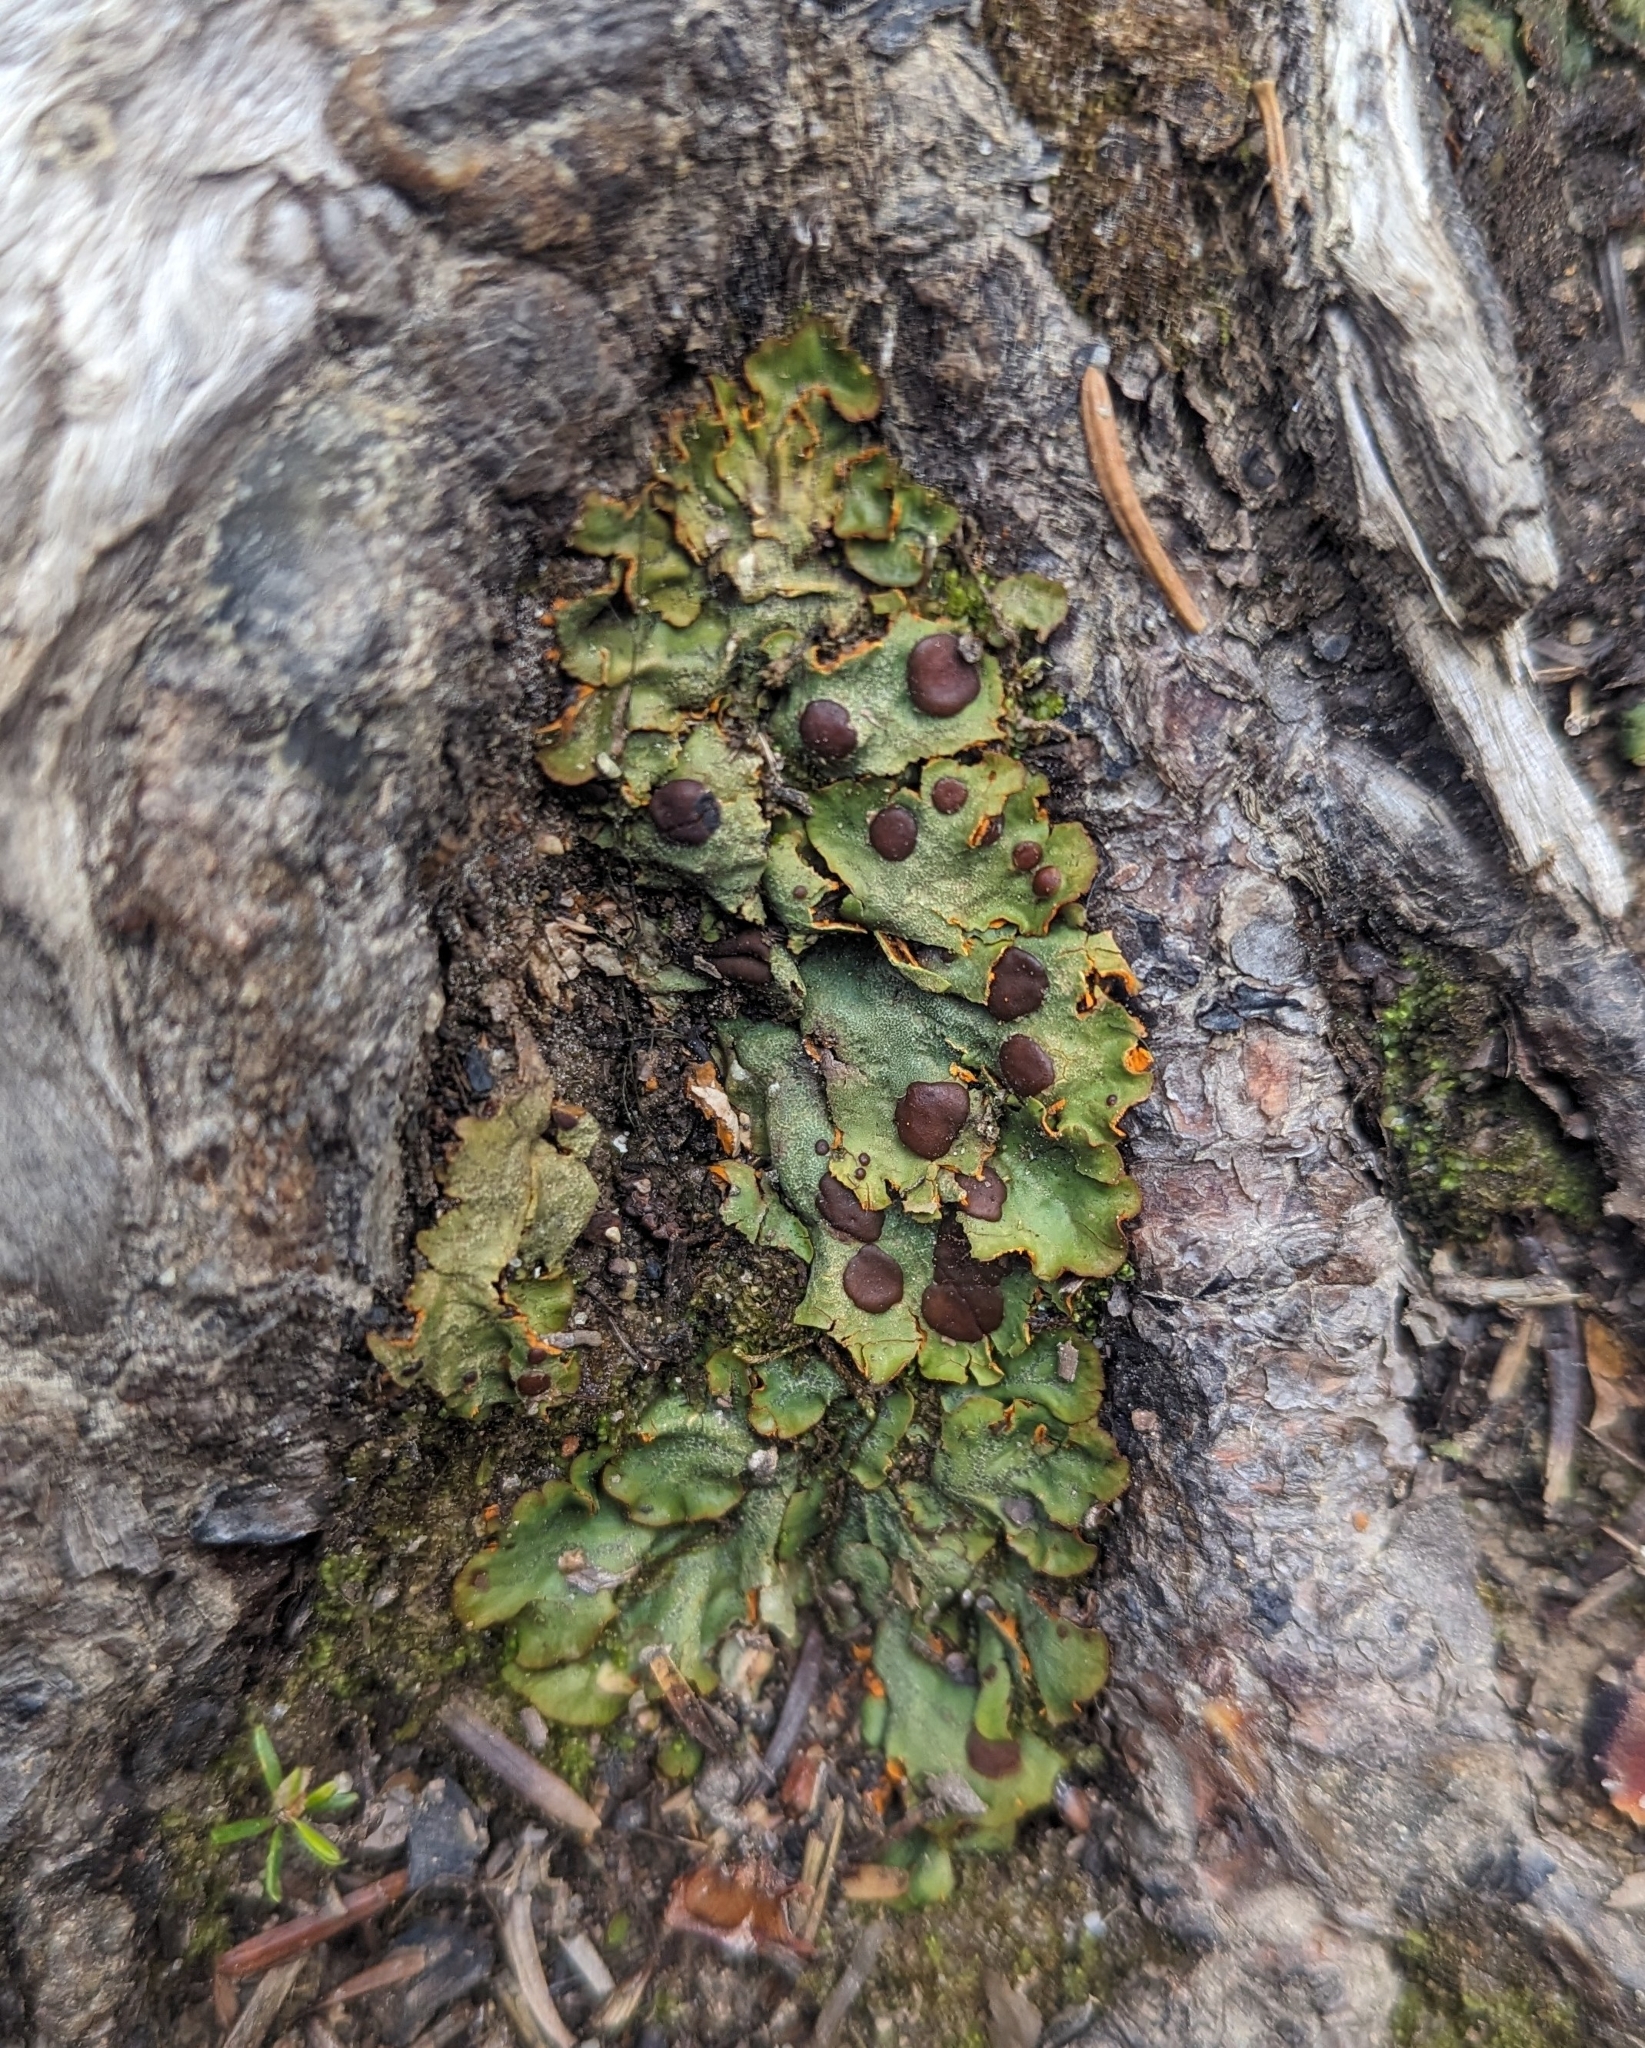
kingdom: Fungi
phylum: Ascomycota
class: Lecanoromycetes
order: Peltigerales
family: Peltigeraceae
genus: Solorina
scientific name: Solorina crocea
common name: Mountain saffron
